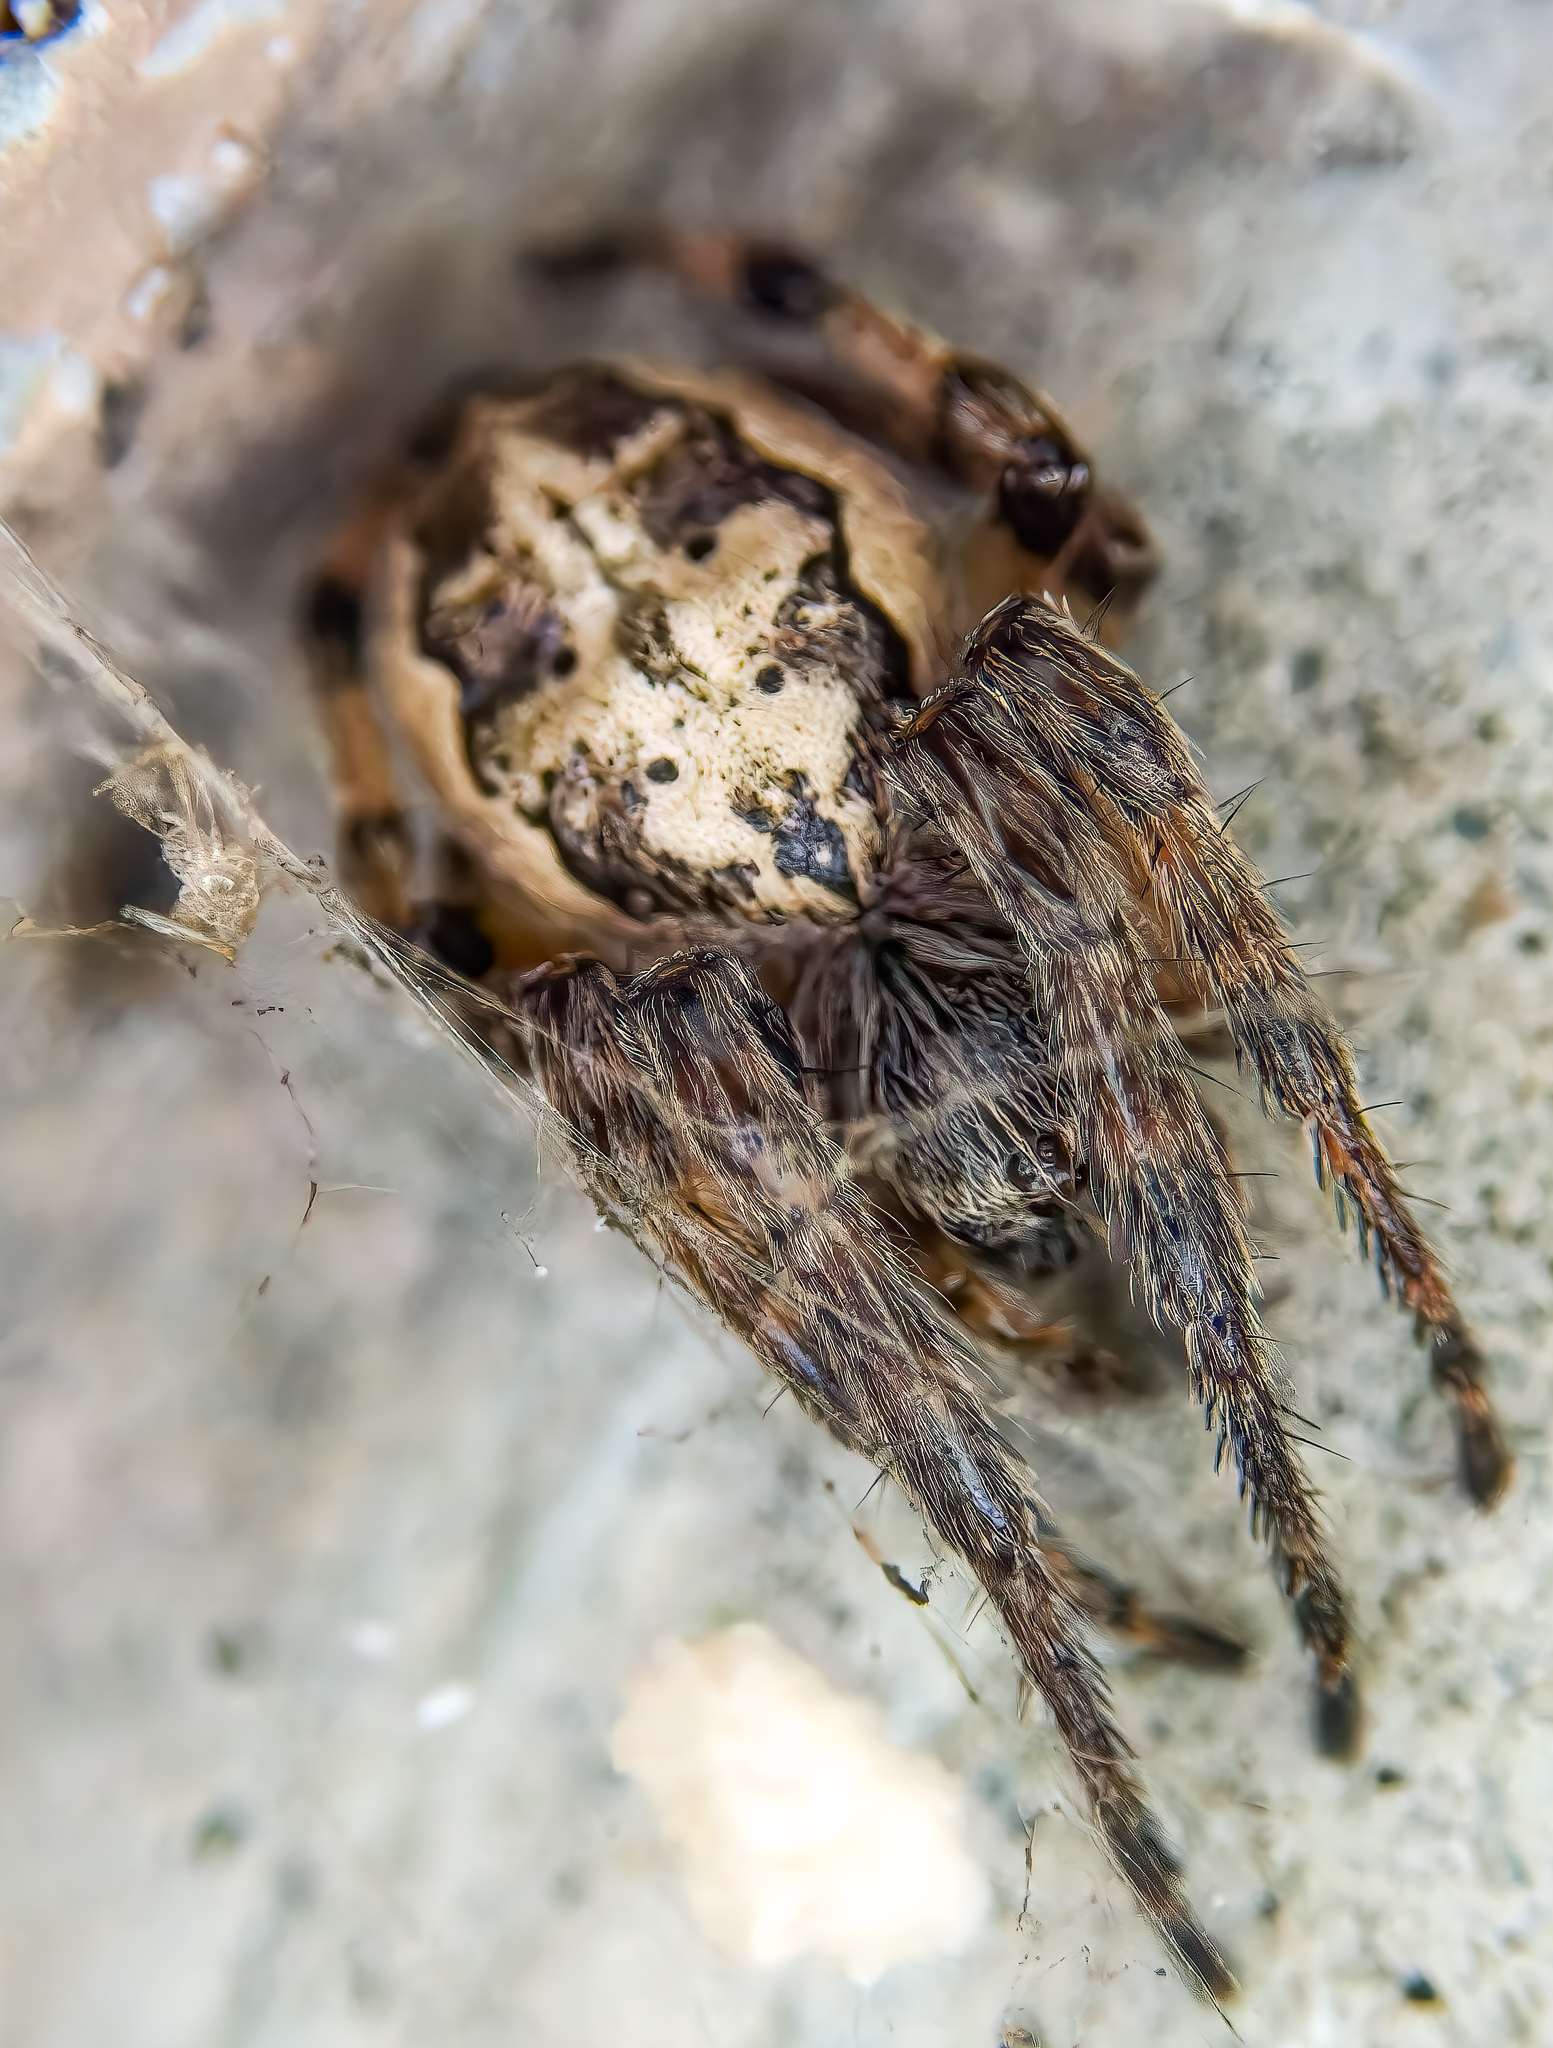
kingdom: Animalia
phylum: Arthropoda
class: Arachnida
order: Araneae
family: Araneidae
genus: Larinioides
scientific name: Larinioides cornutus
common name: Furrow orbweaver
